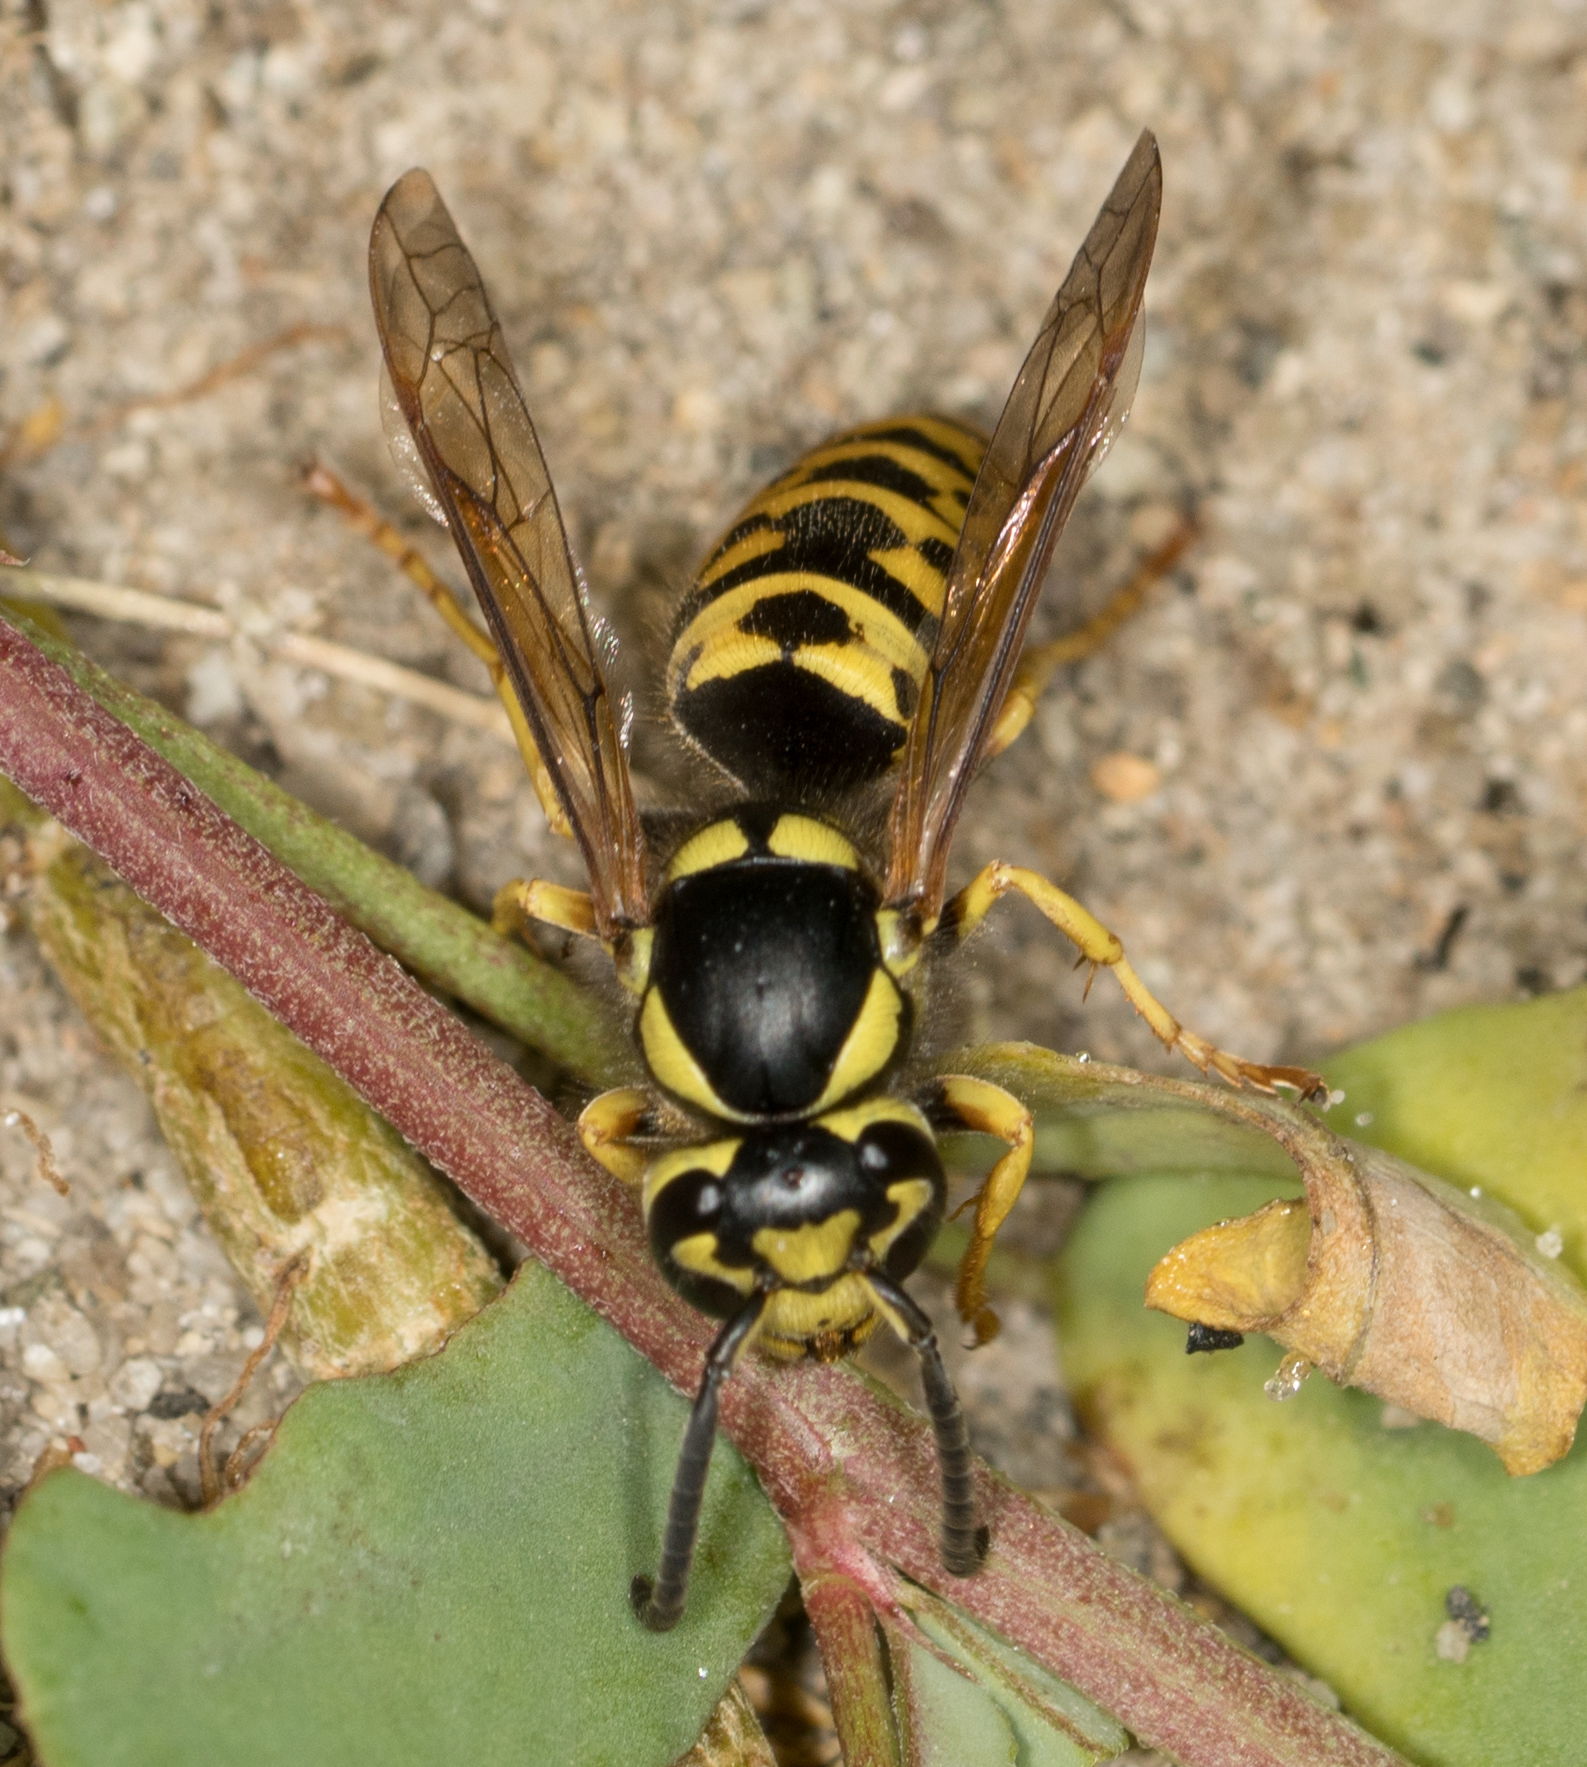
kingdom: Animalia
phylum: Arthropoda
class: Insecta
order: Hymenoptera
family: Vespidae
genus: Vespula
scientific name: Vespula atropilosa
